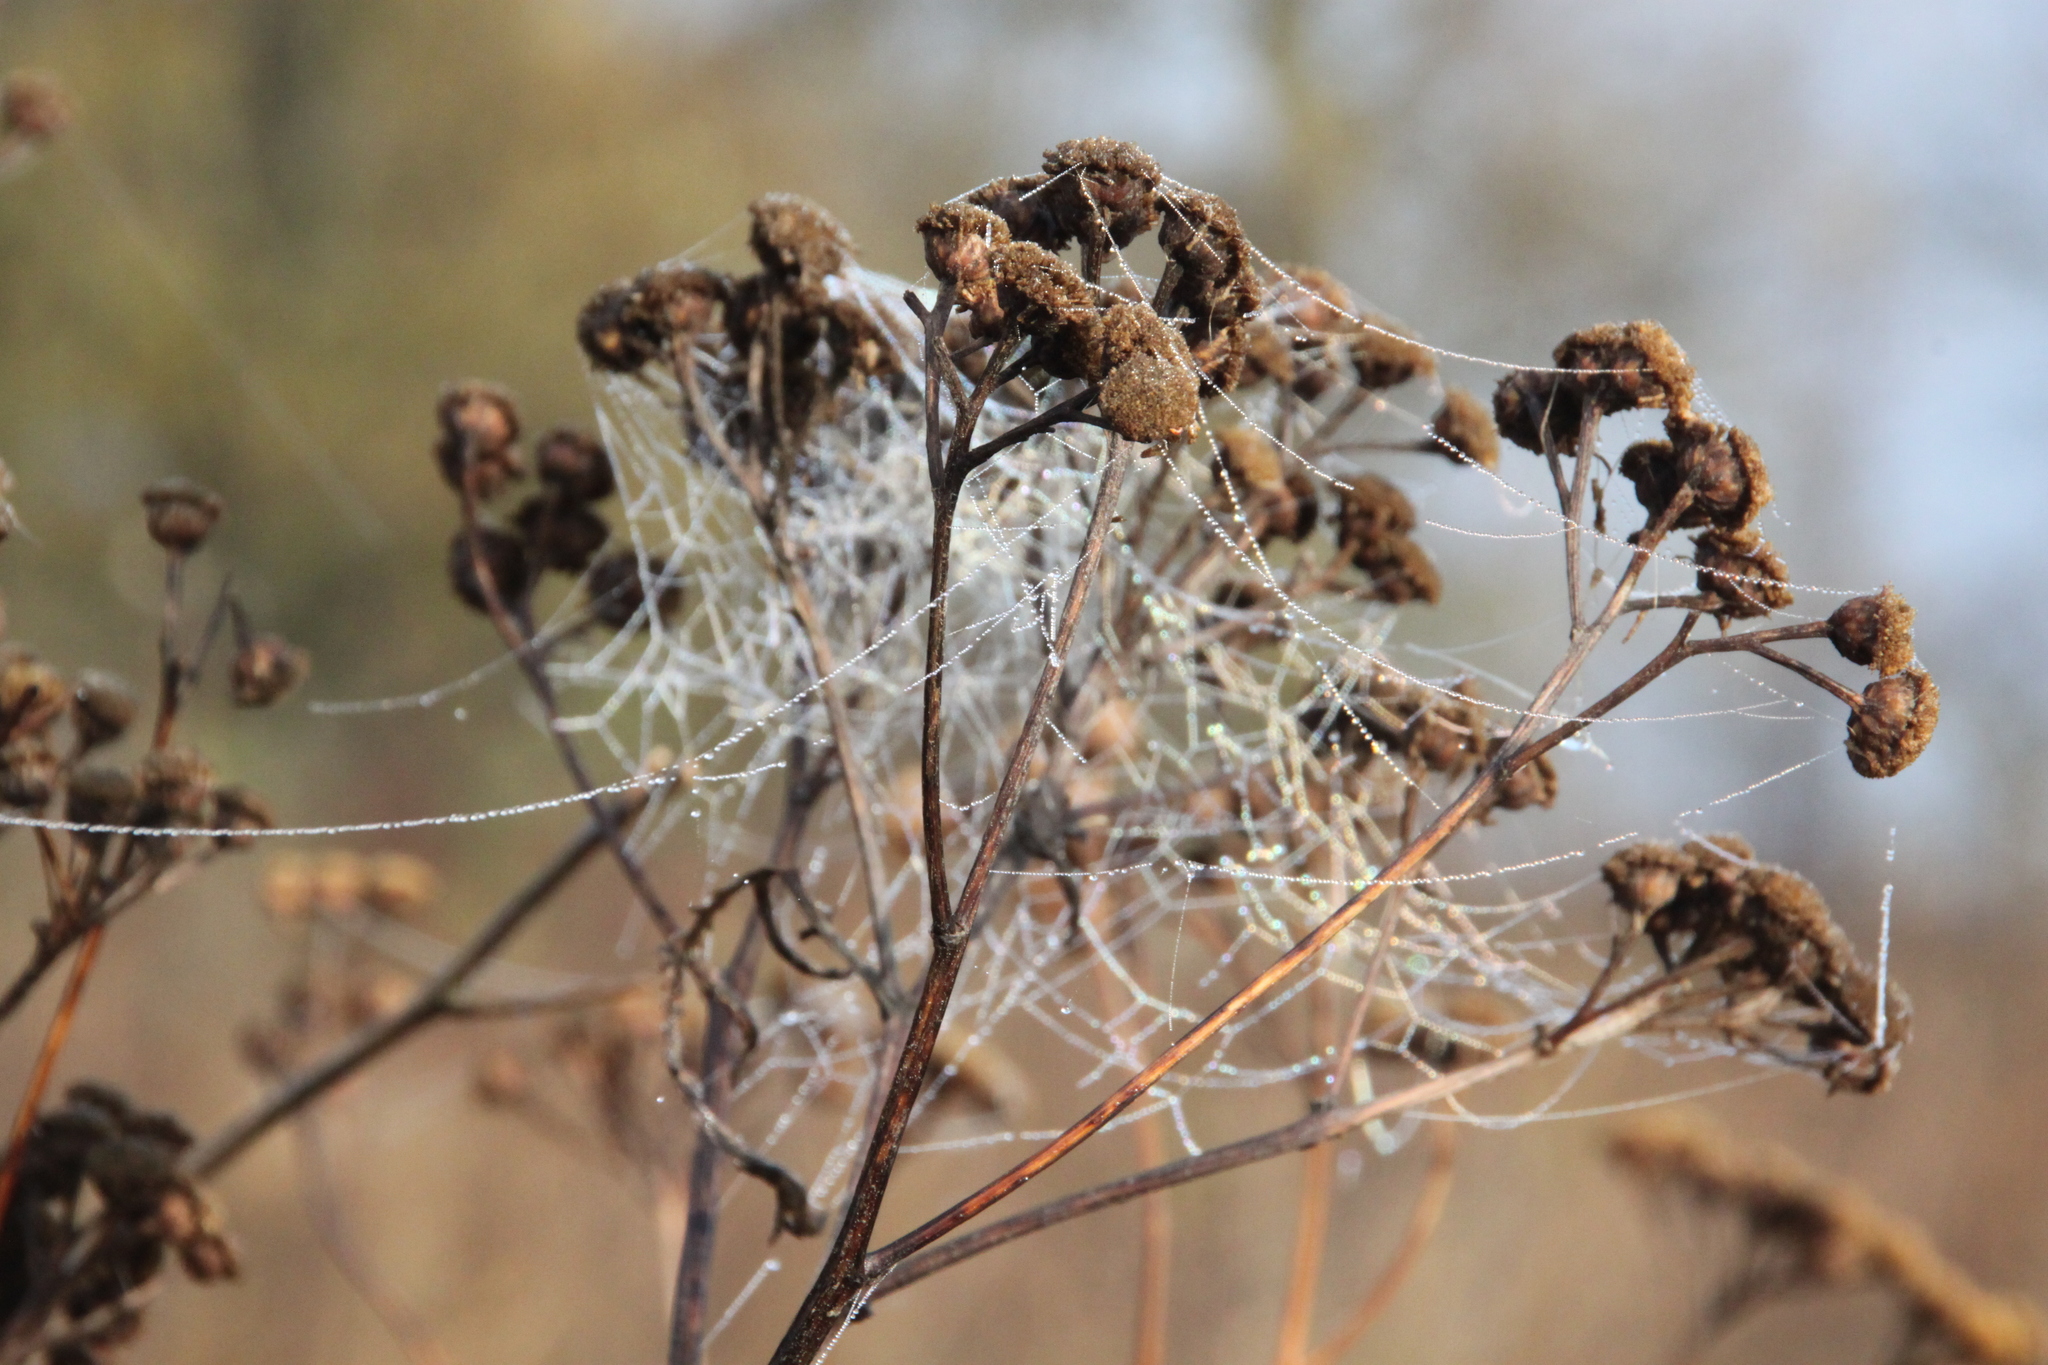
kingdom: Plantae
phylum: Tracheophyta
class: Magnoliopsida
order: Asterales
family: Asteraceae
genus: Tanacetum
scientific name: Tanacetum vulgare
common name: Common tansy
